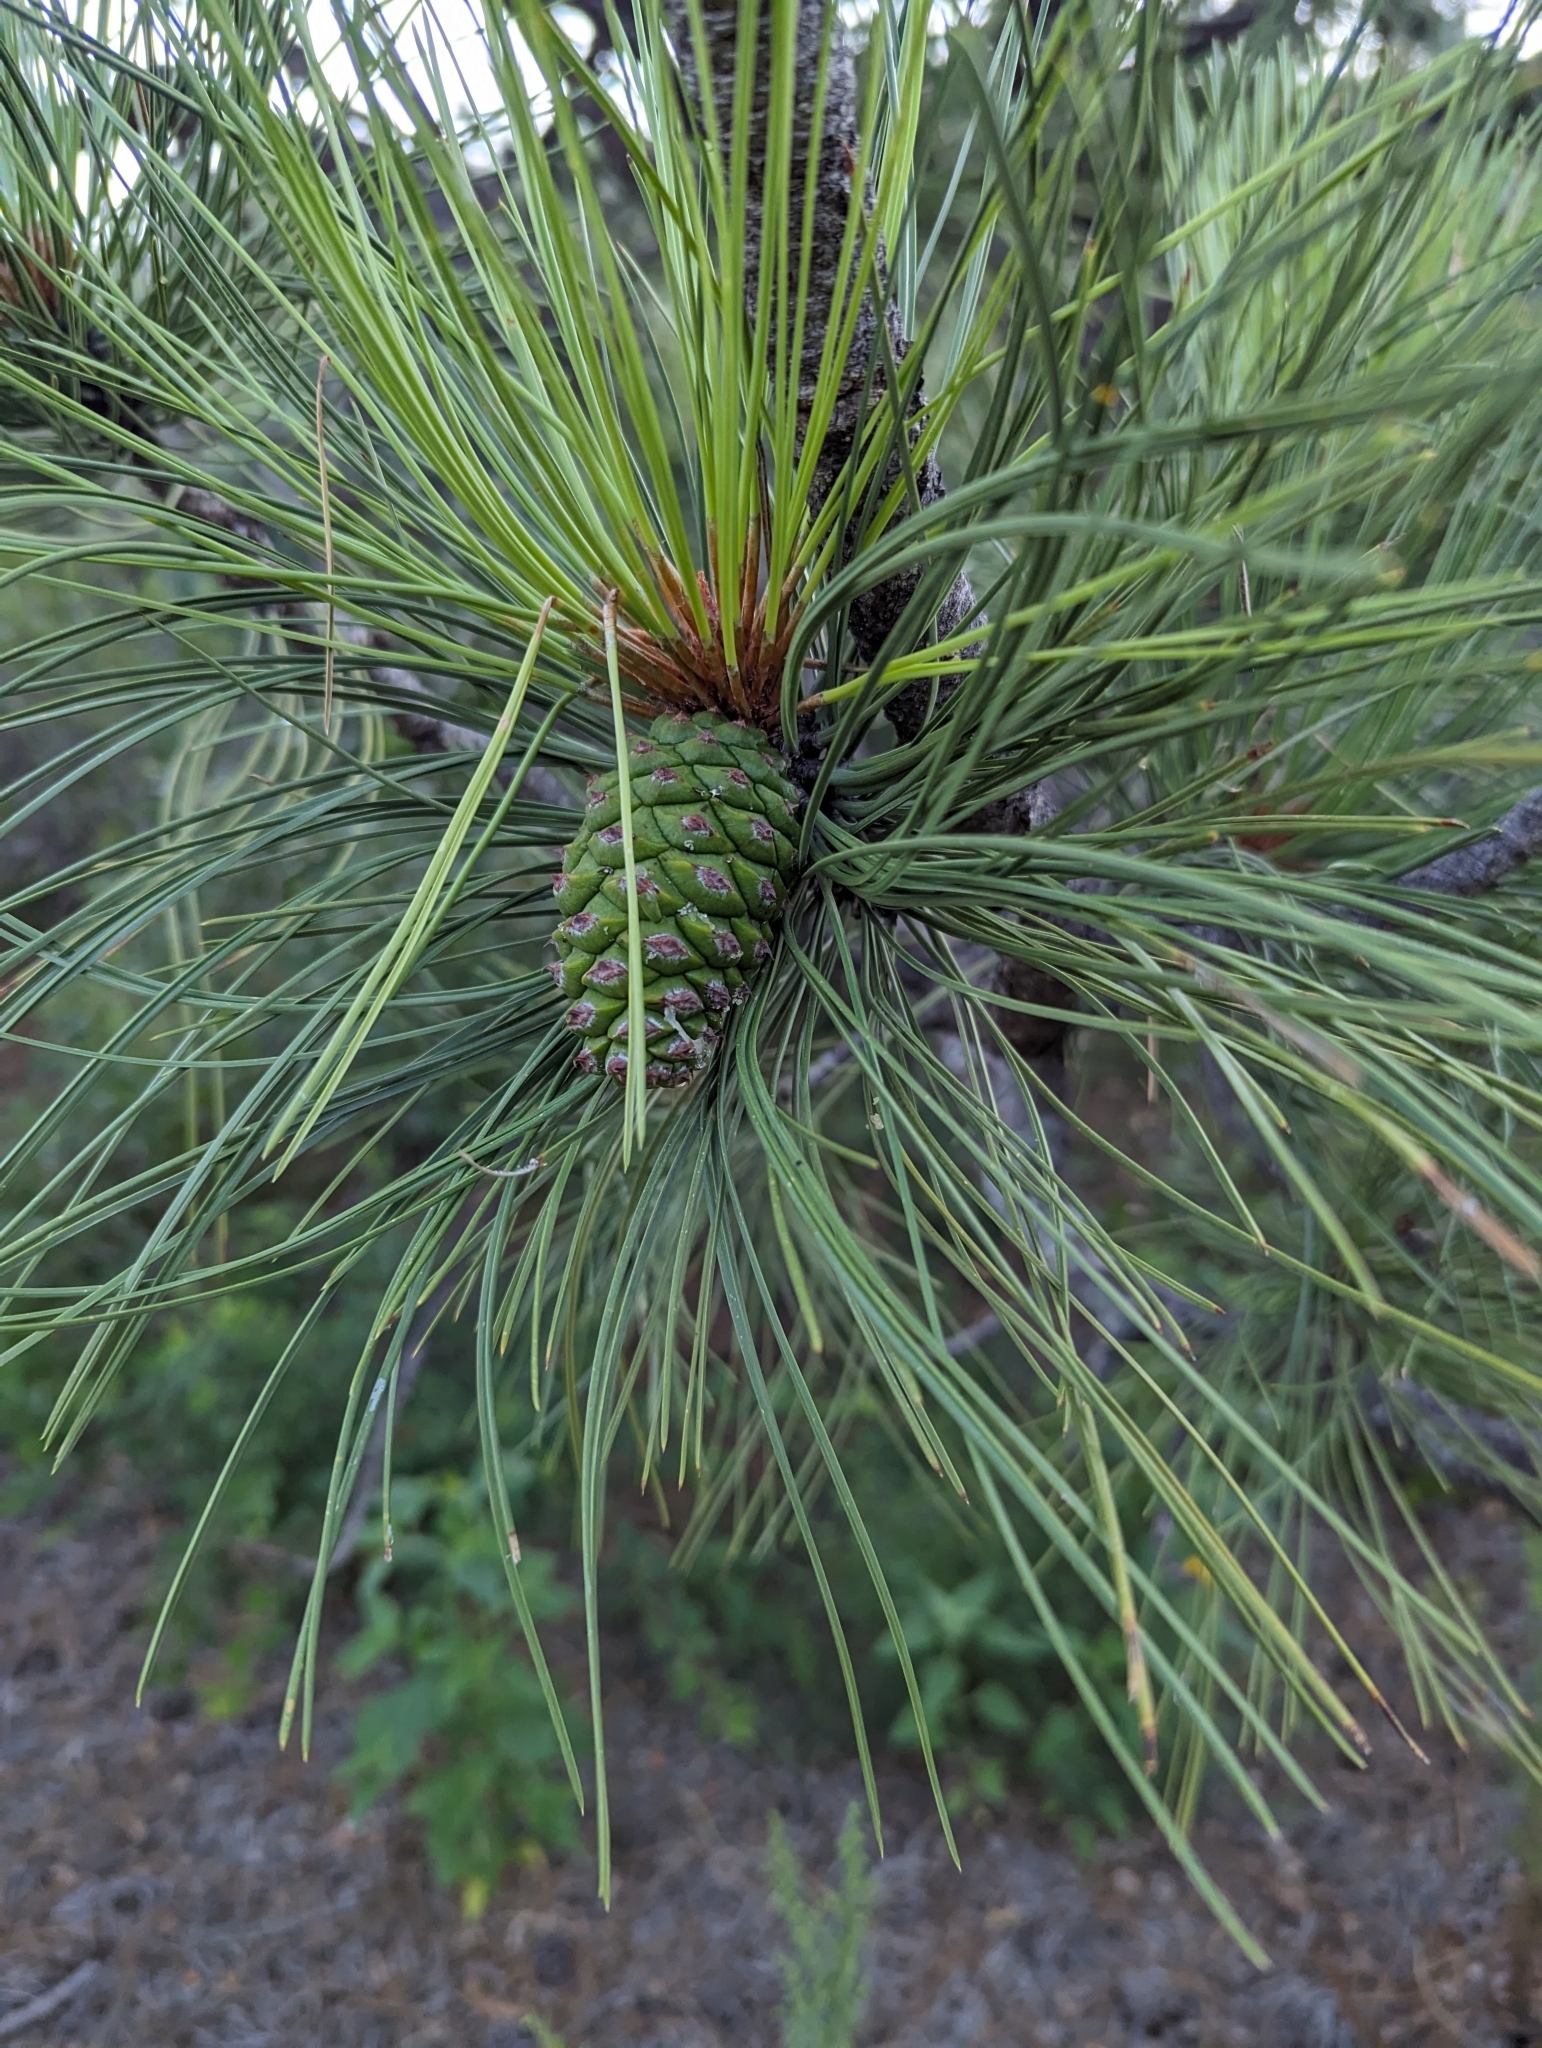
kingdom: Plantae
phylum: Tracheophyta
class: Pinopsida
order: Pinales
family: Pinaceae
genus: Pinus
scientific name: Pinus ponderosa
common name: Western yellow-pine
